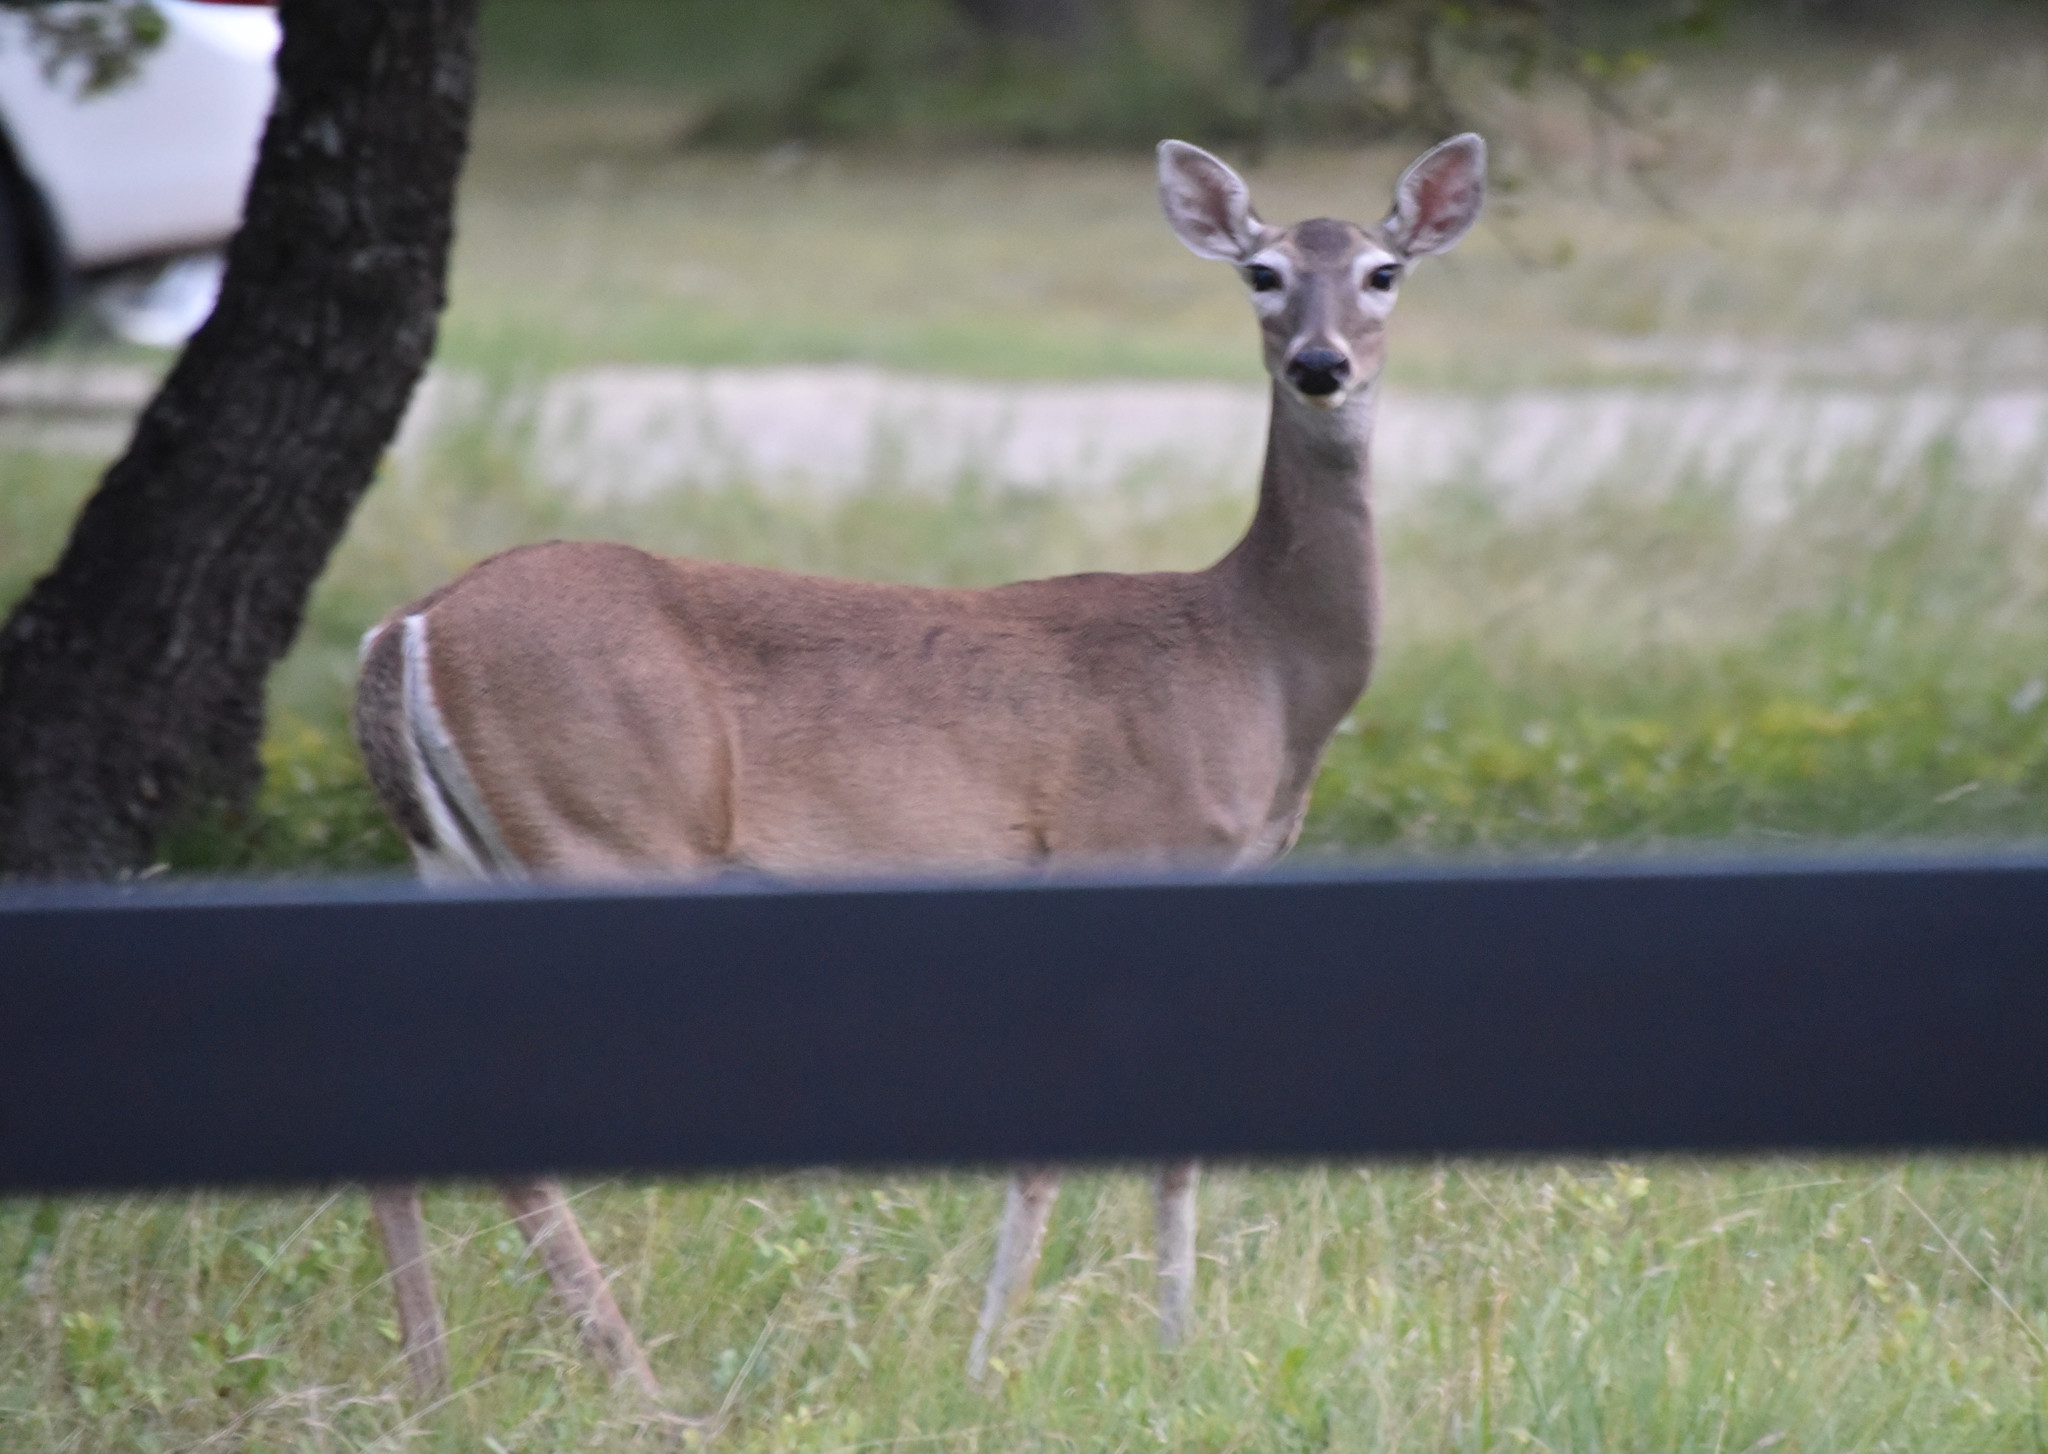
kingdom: Animalia
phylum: Chordata
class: Mammalia
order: Artiodactyla
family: Cervidae
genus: Odocoileus
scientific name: Odocoileus virginianus
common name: White-tailed deer
